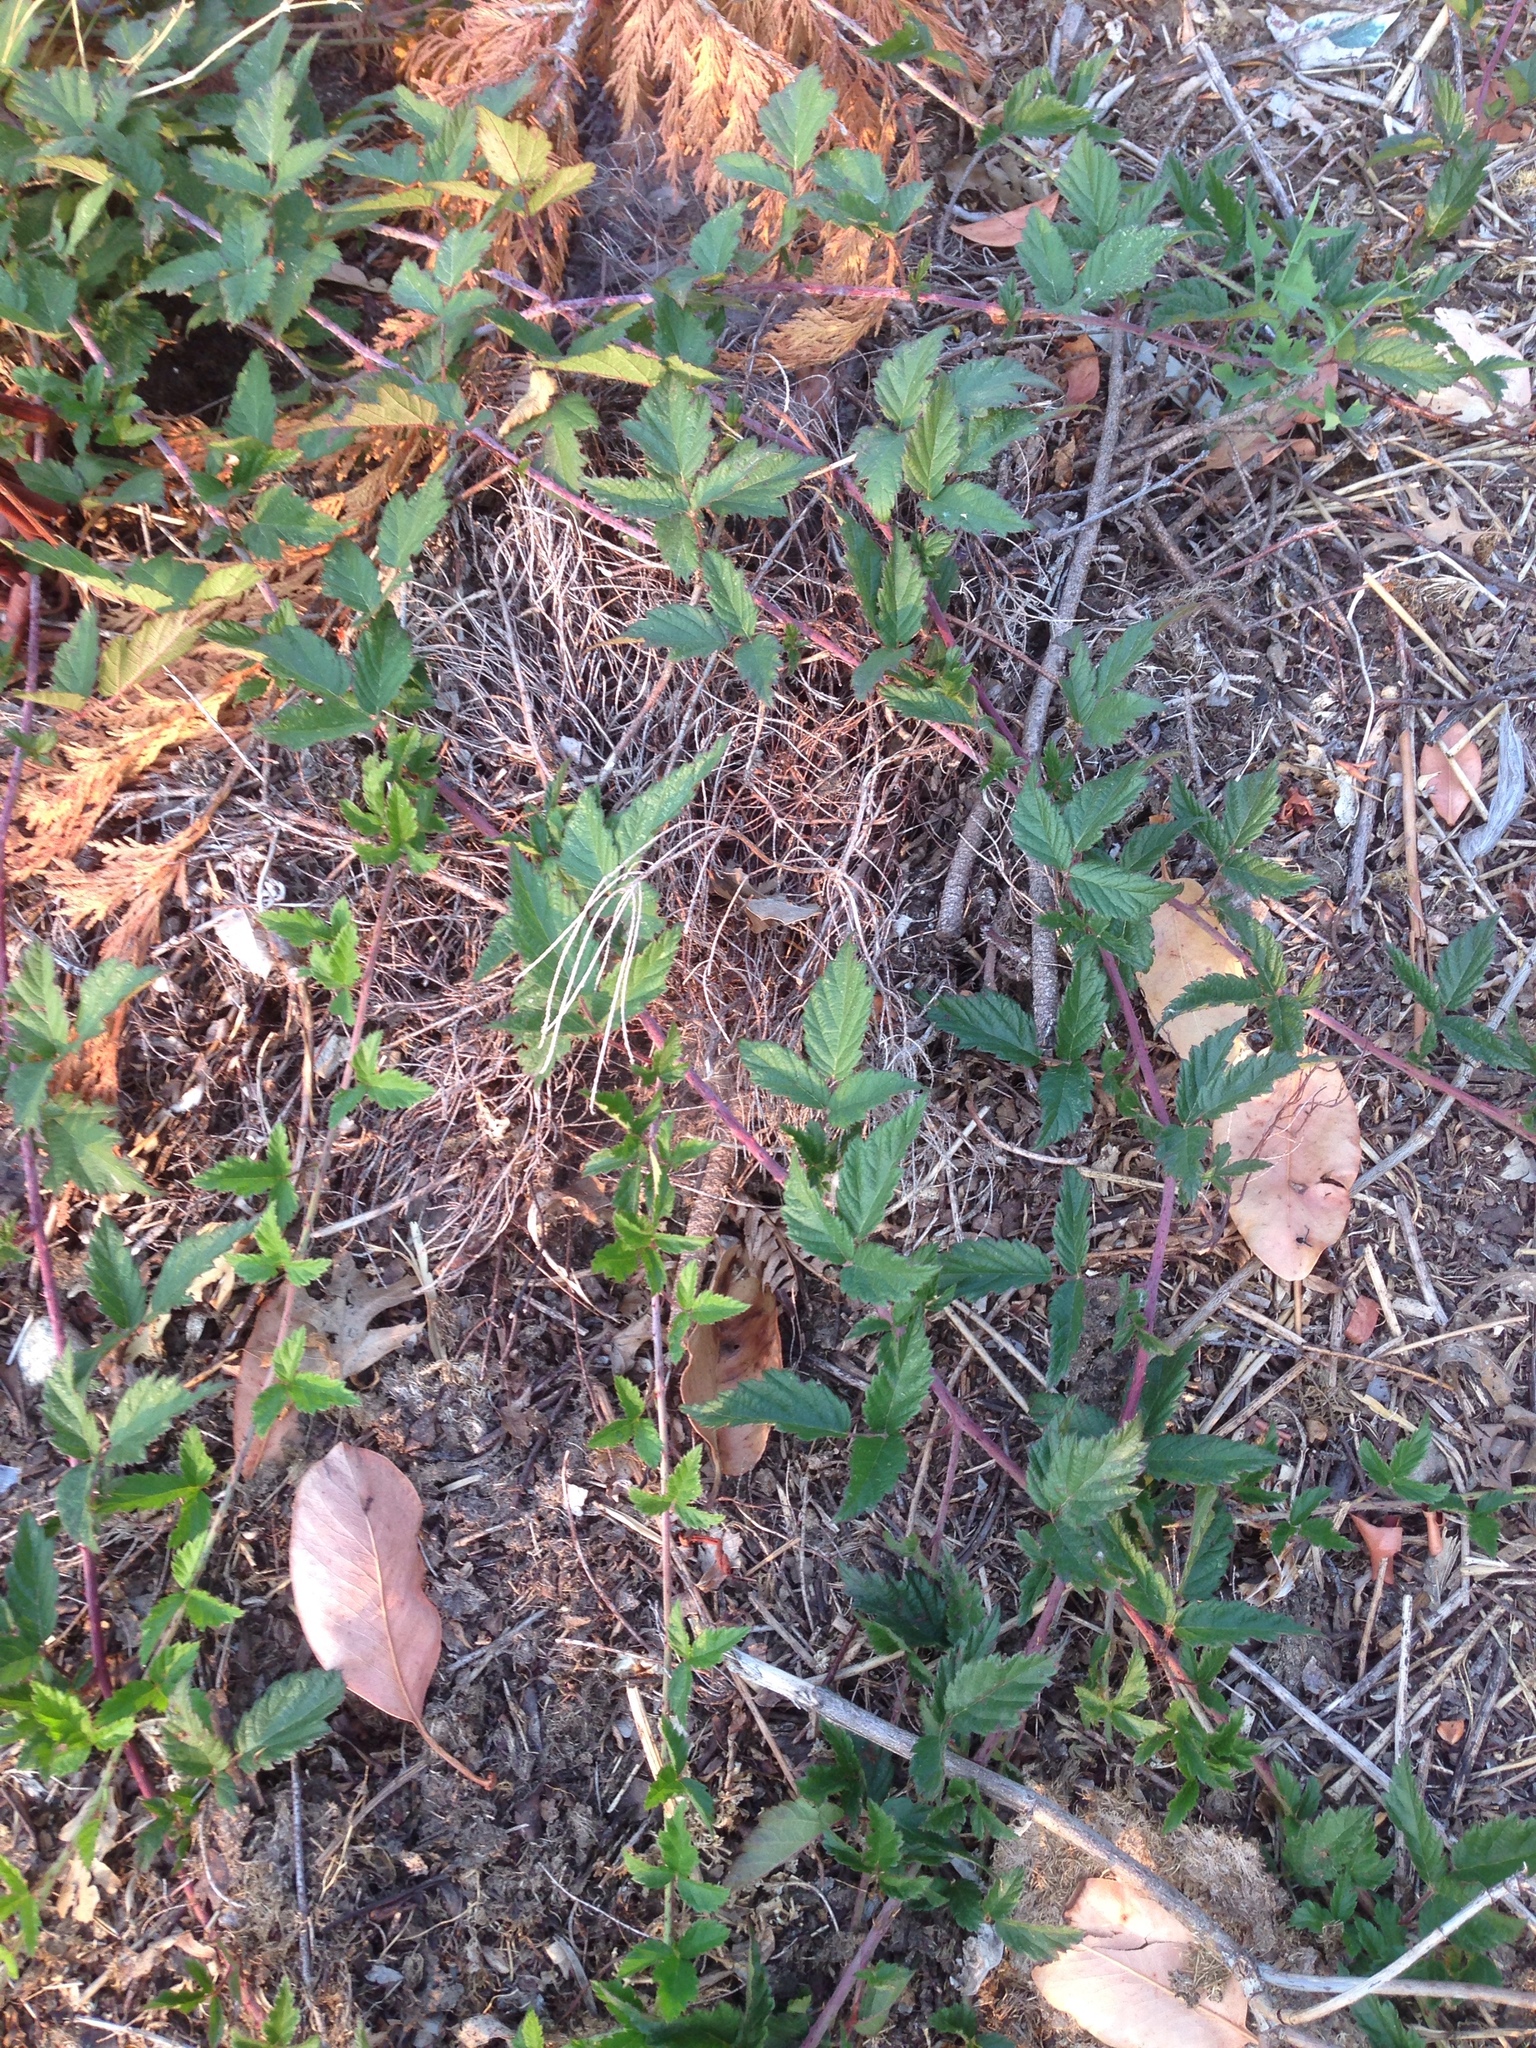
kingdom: Plantae
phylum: Tracheophyta
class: Magnoliopsida
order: Rosales
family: Rosaceae
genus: Rubus
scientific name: Rubus ursinus
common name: Pacific blackberry
